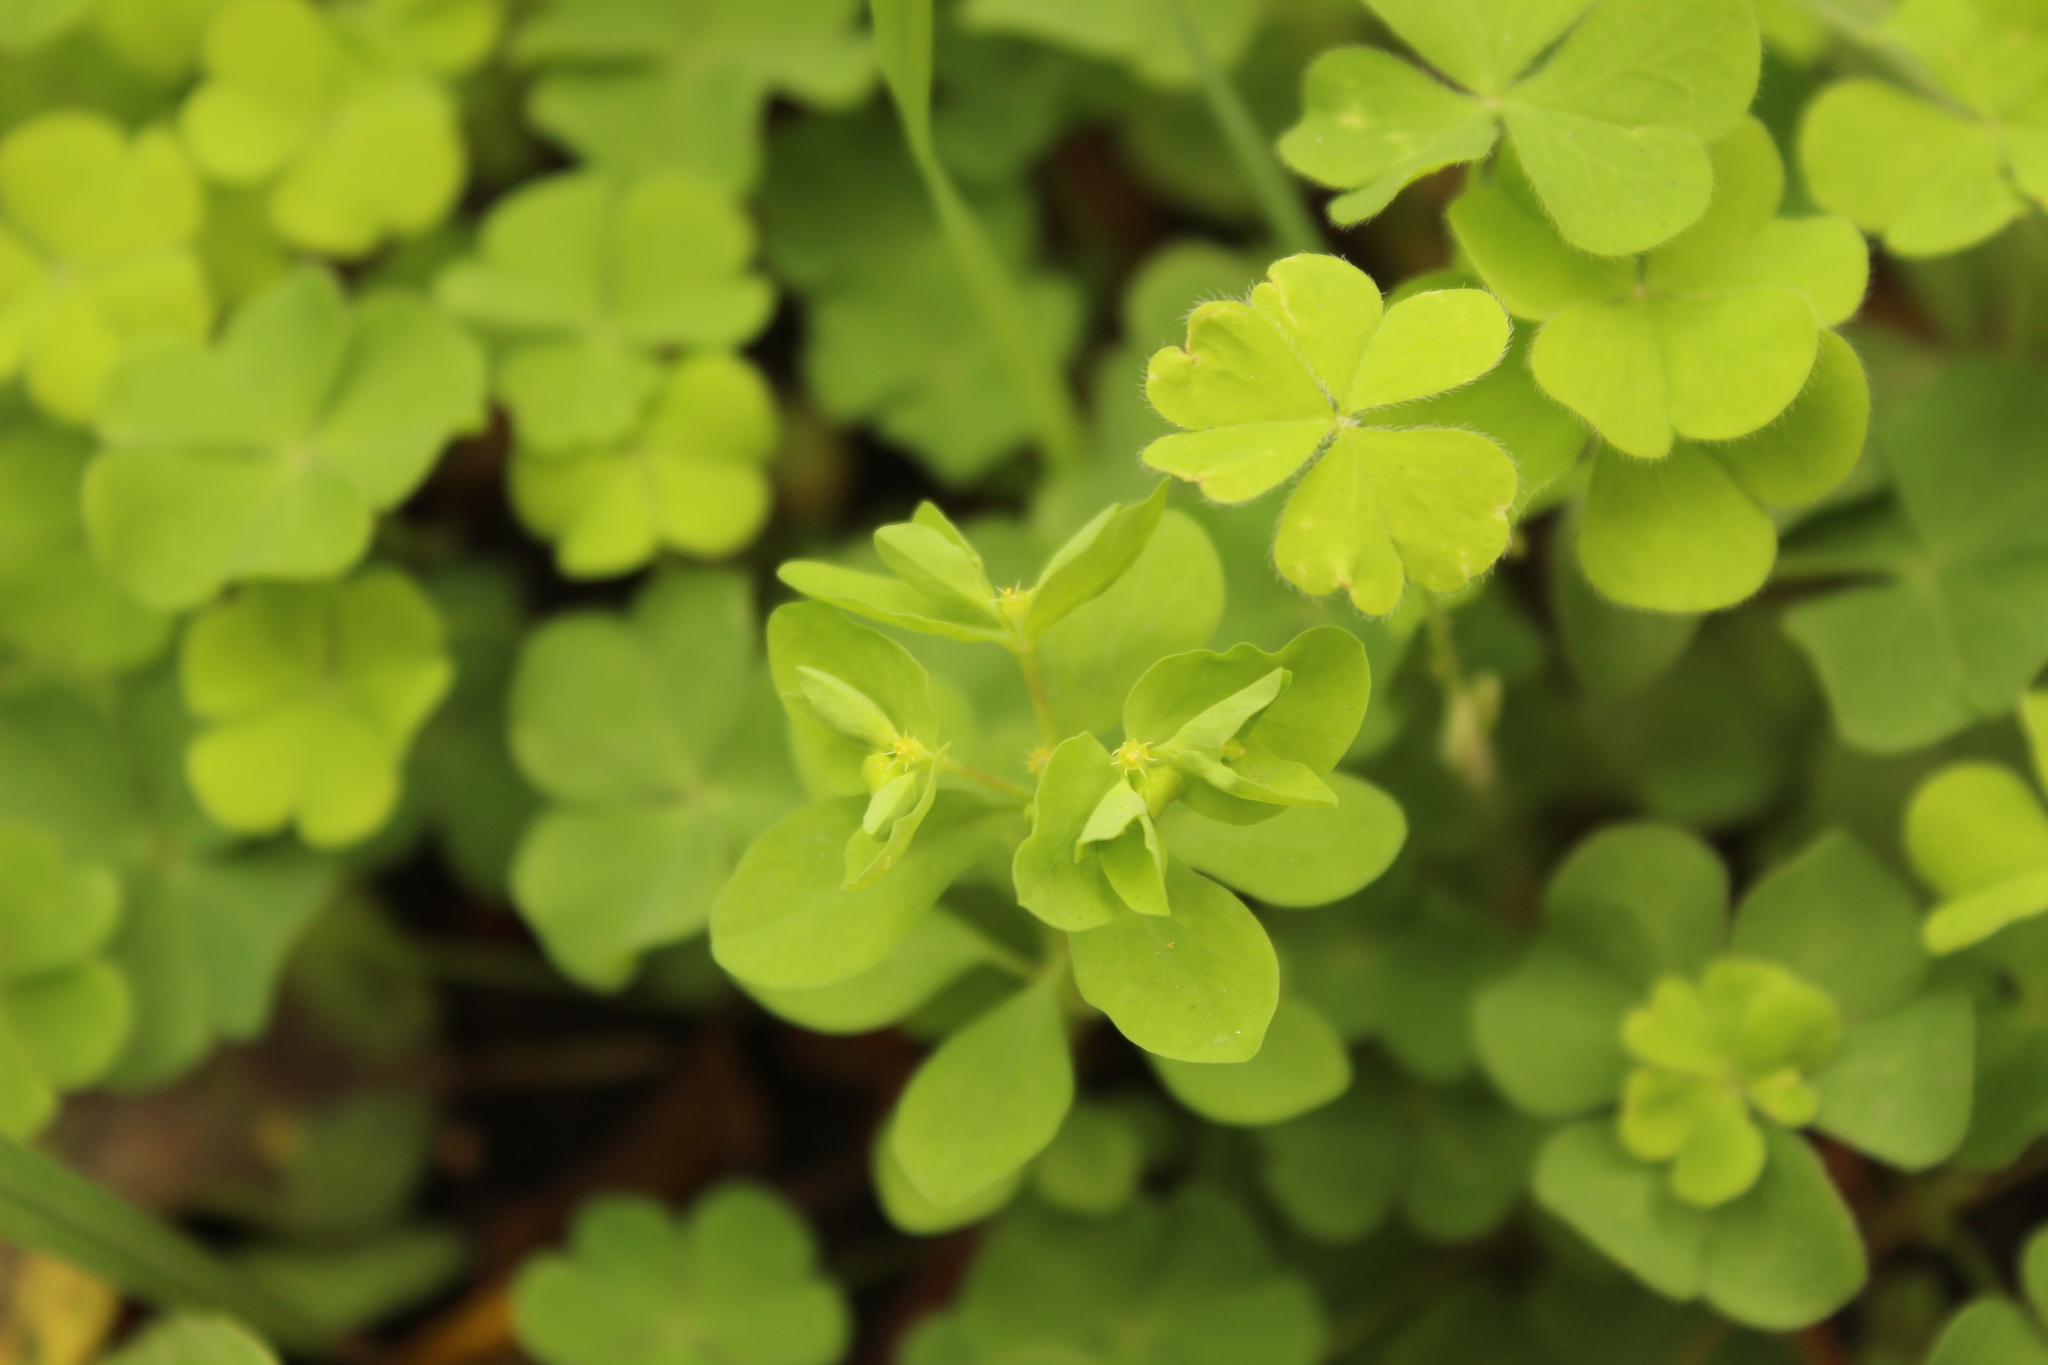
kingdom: Plantae
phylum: Tracheophyta
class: Magnoliopsida
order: Malpighiales
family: Euphorbiaceae
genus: Euphorbia
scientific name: Euphorbia peplus
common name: Petty spurge
